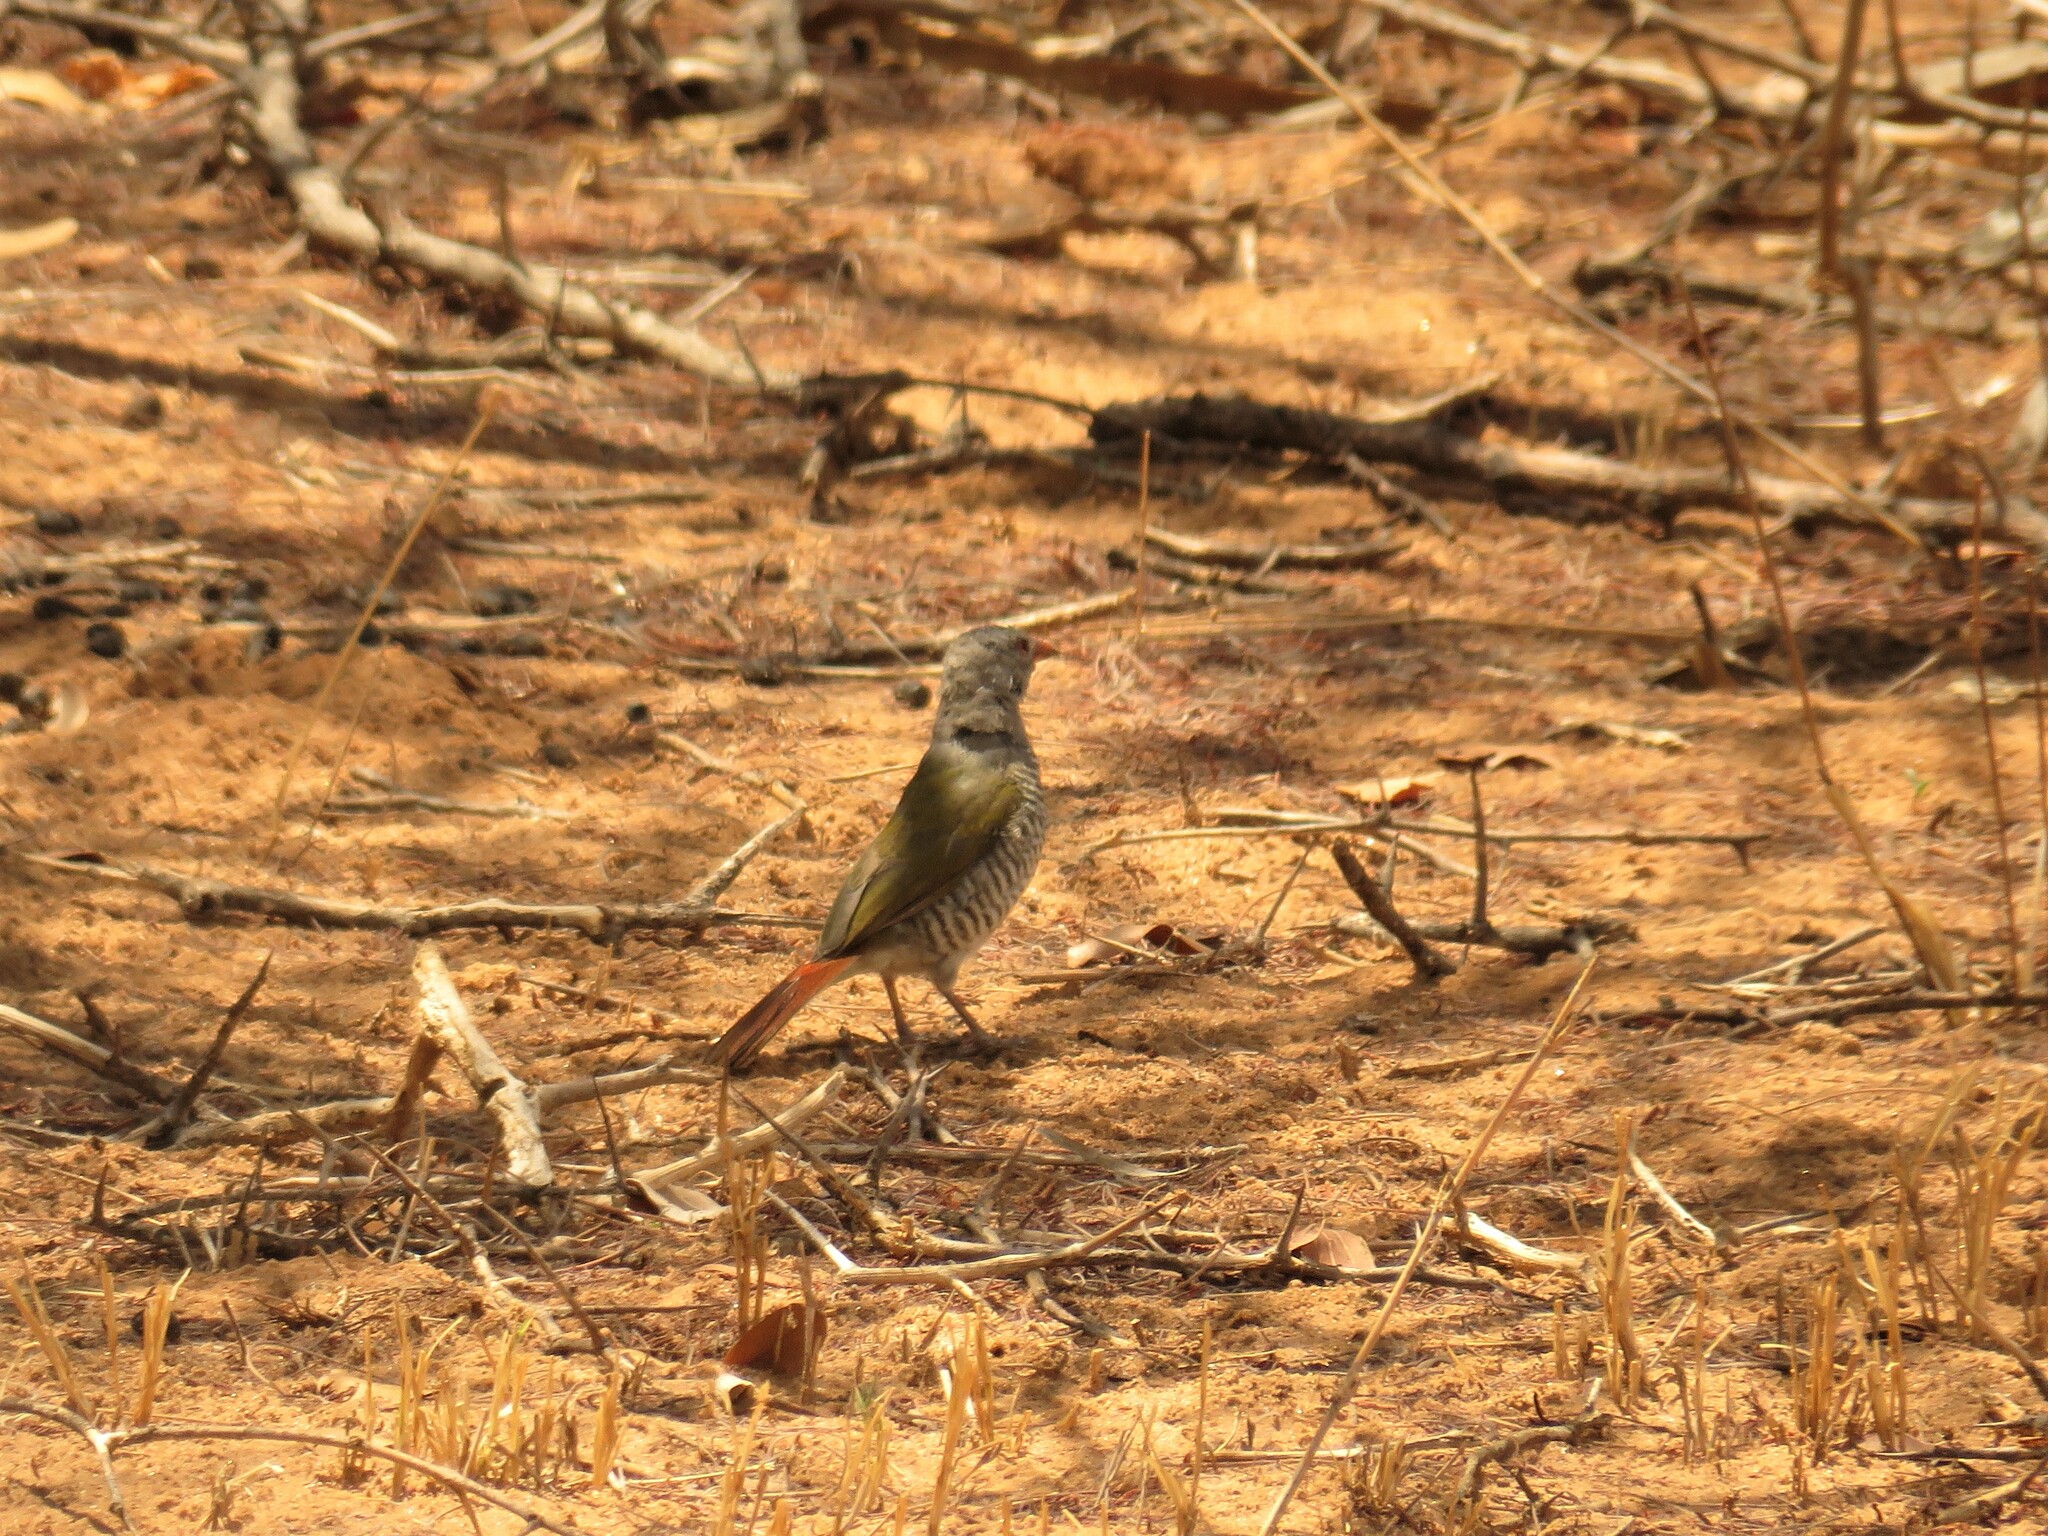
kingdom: Animalia
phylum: Chordata
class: Aves
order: Passeriformes
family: Estrildidae
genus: Pytilia
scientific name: Pytilia melba
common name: Green-winged pytilia
